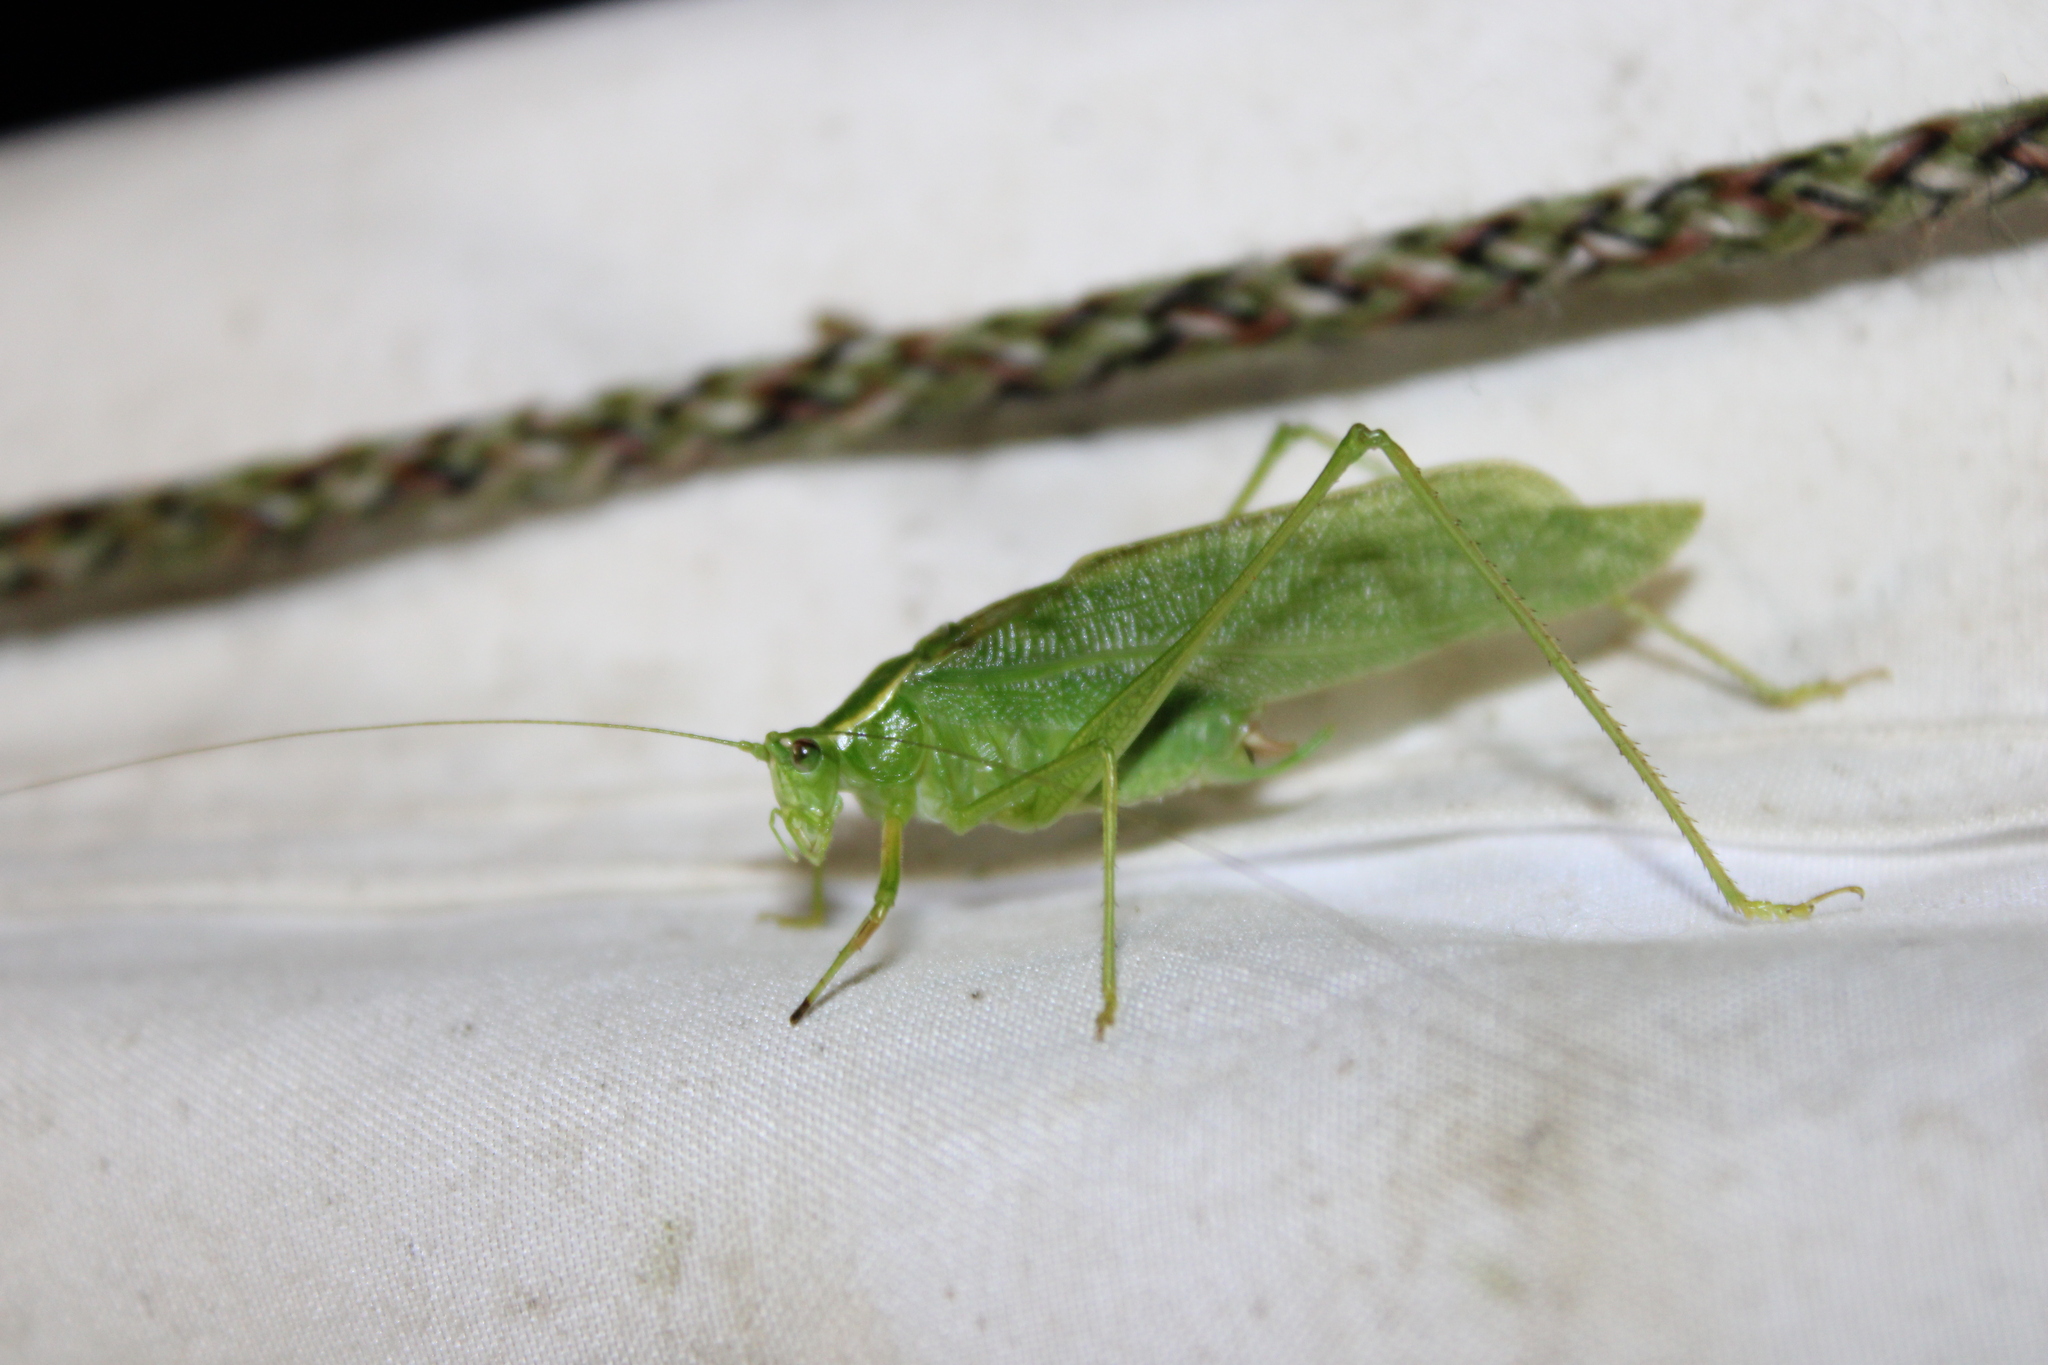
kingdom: Animalia
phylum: Arthropoda
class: Insecta
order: Orthoptera
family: Tettigoniidae
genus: Scudderia
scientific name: Scudderia septentrionalis
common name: Northern bush-katydid
